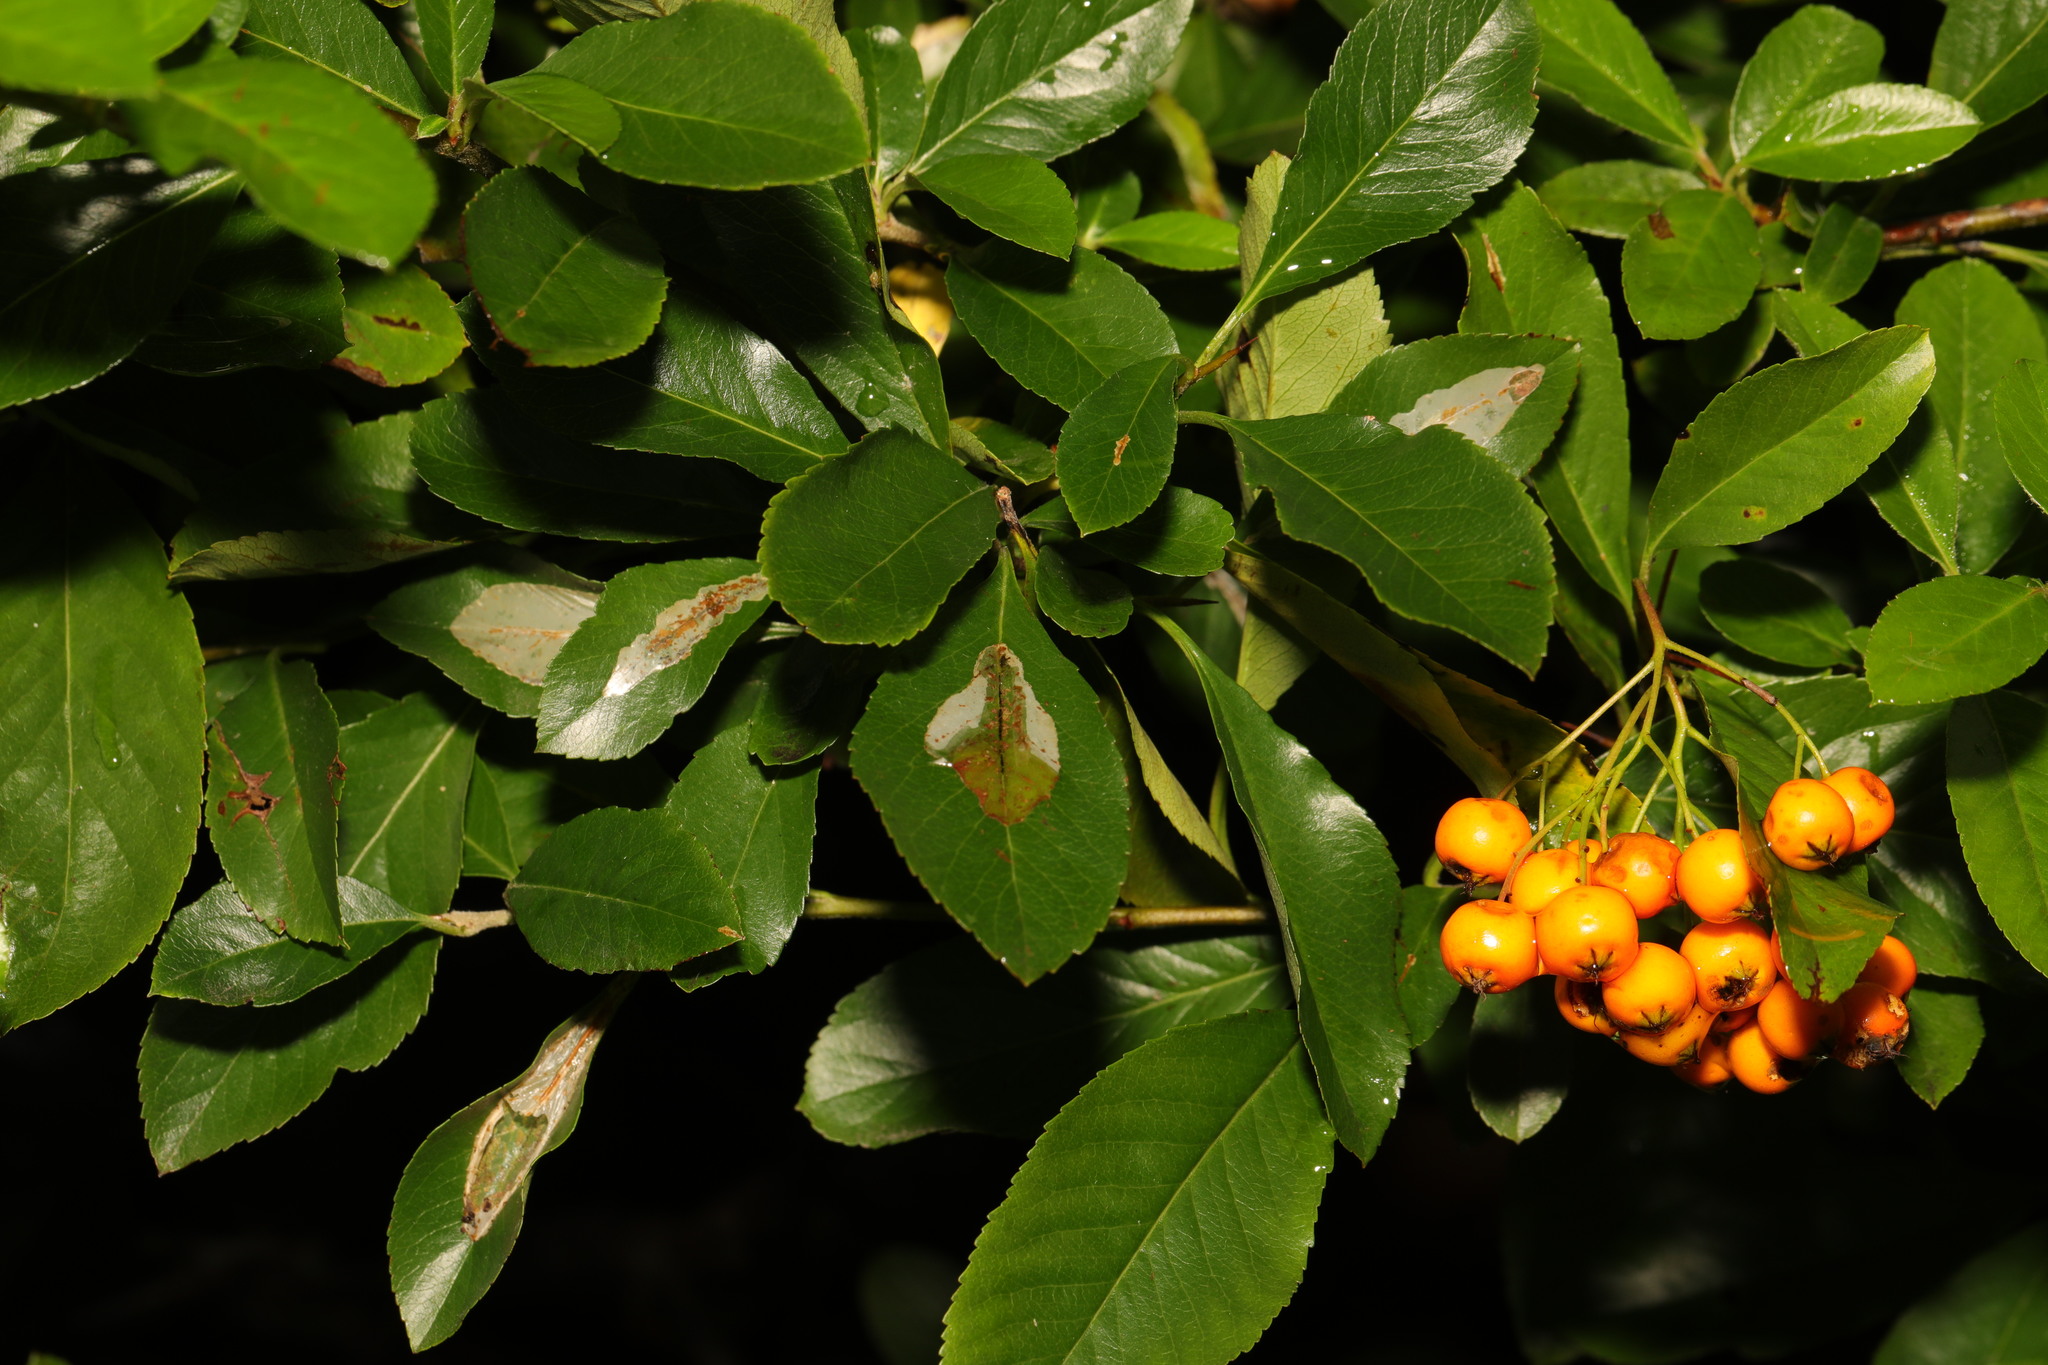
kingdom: Plantae
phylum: Tracheophyta
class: Magnoliopsida
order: Rosales
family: Rosaceae
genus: Pyracantha
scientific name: Pyracantha coccinea
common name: Firethorn
